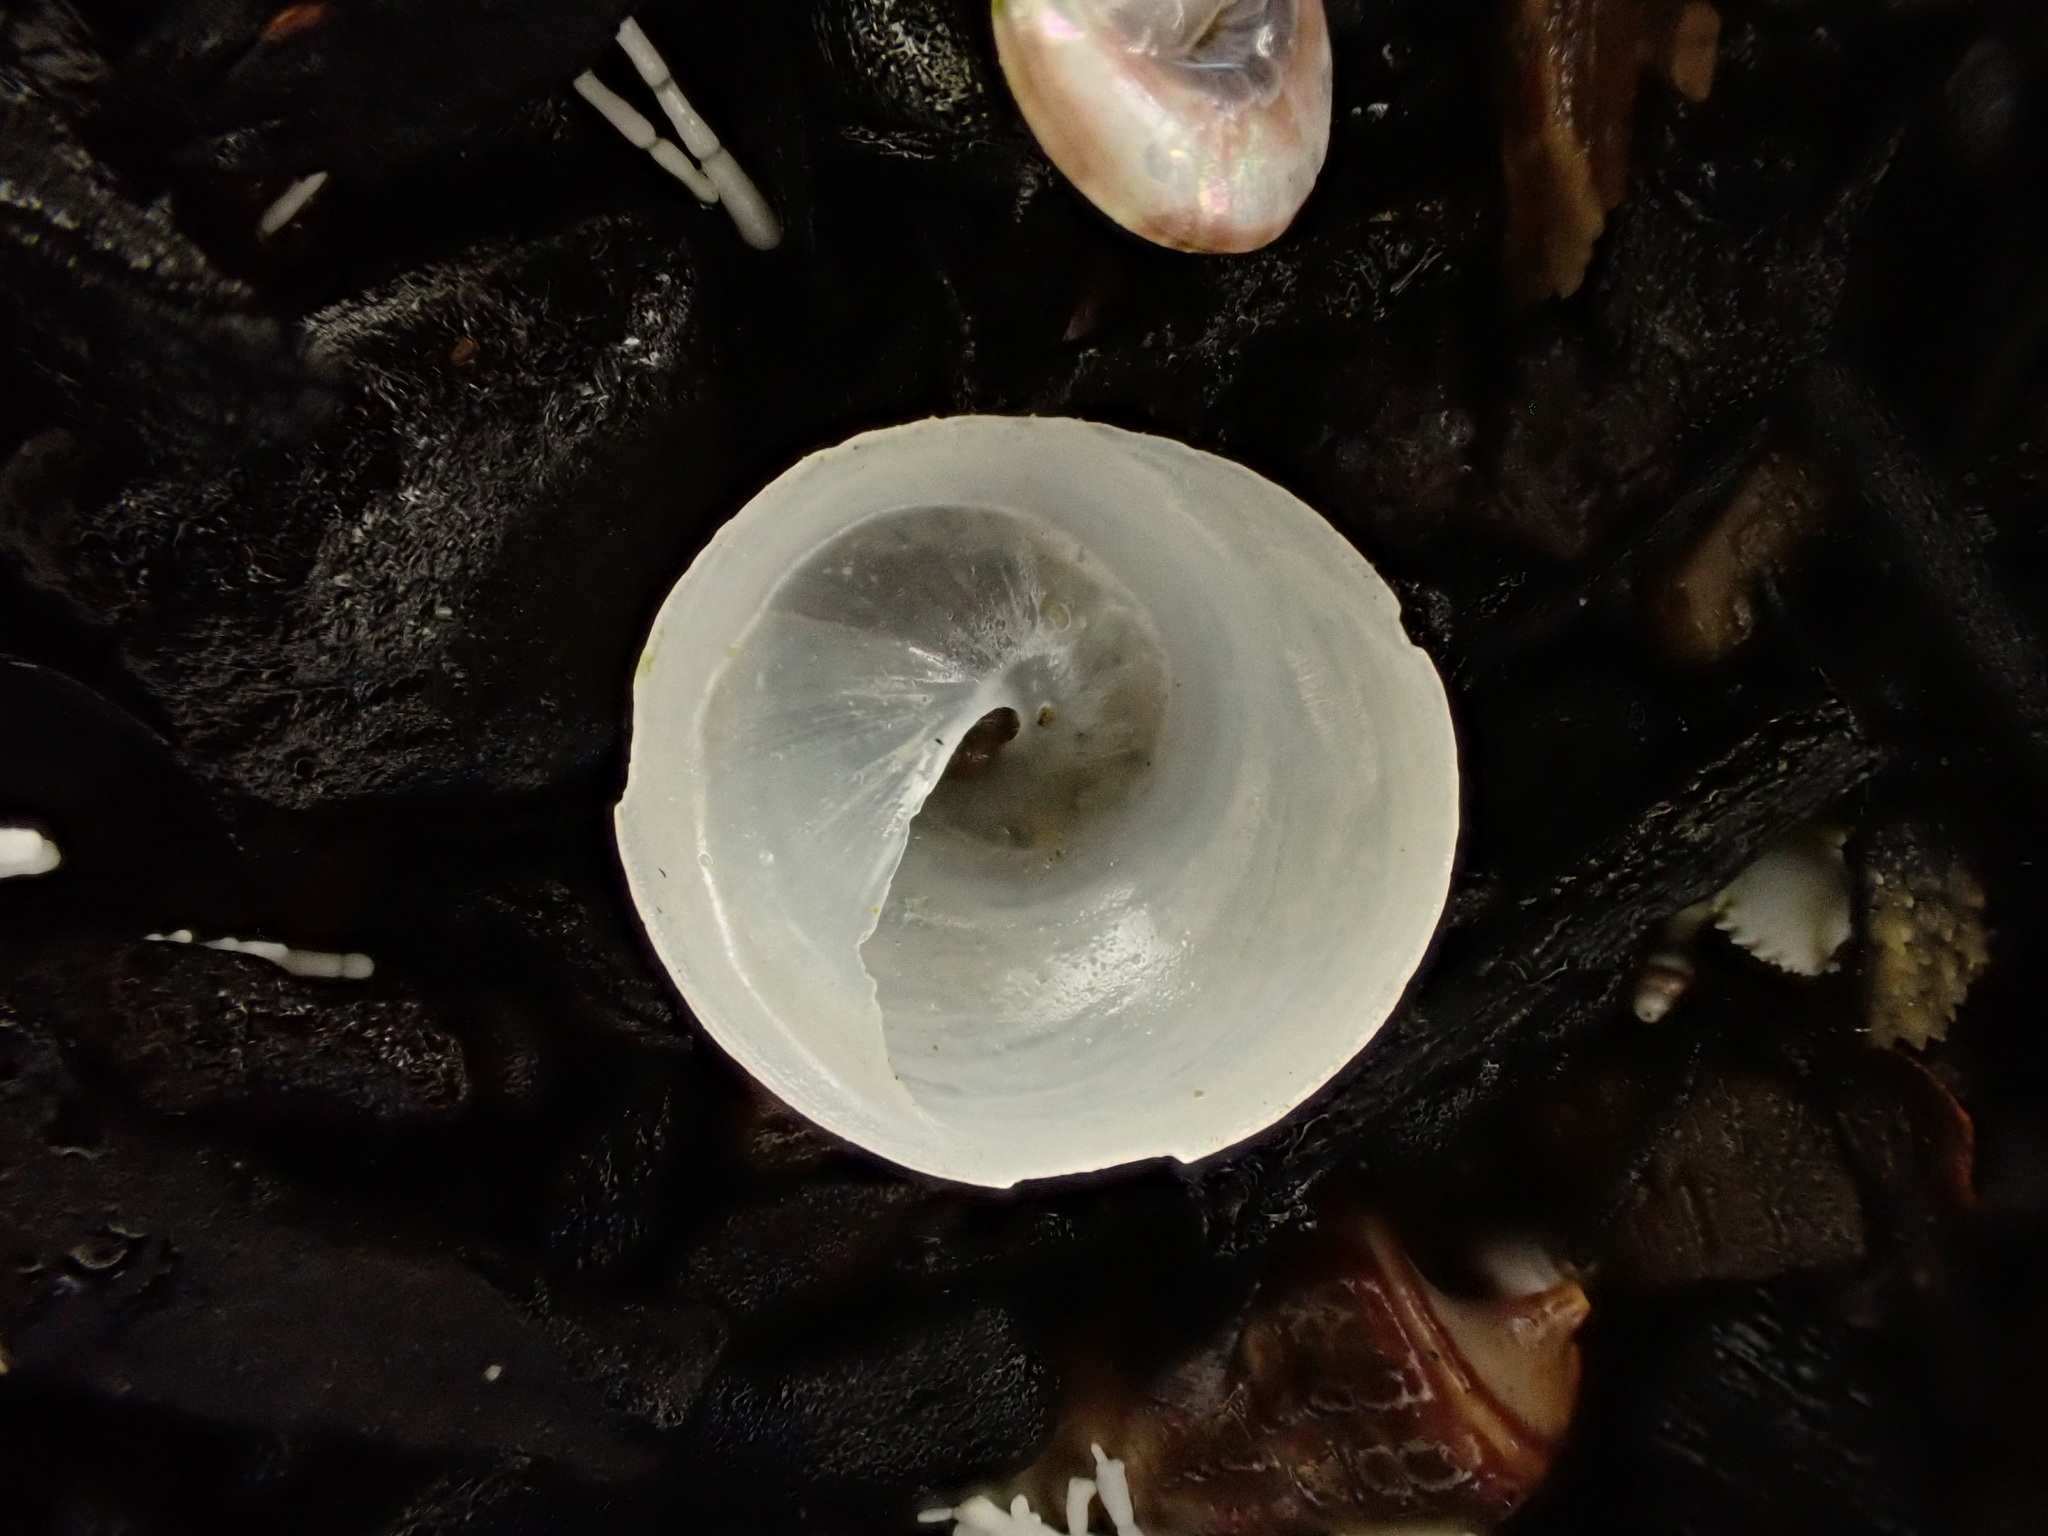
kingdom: Animalia
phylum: Mollusca
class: Gastropoda
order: Littorinimorpha
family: Calyptraeidae
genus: Sigapatella
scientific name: Sigapatella tenuis
